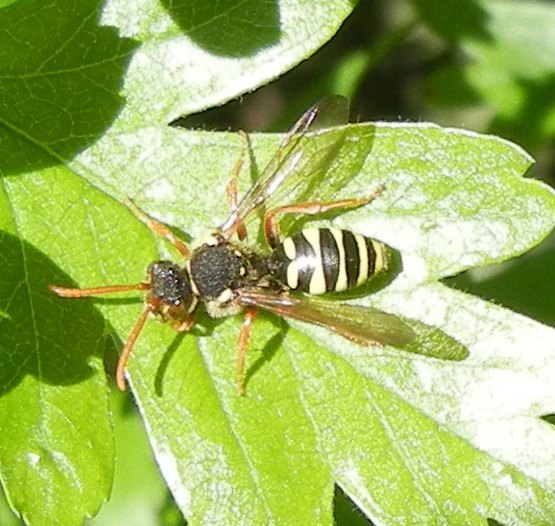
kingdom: Animalia
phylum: Arthropoda
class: Insecta
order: Hymenoptera
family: Apidae
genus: Nomada
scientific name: Nomada goodeniana
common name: Gooden's nomad bee
